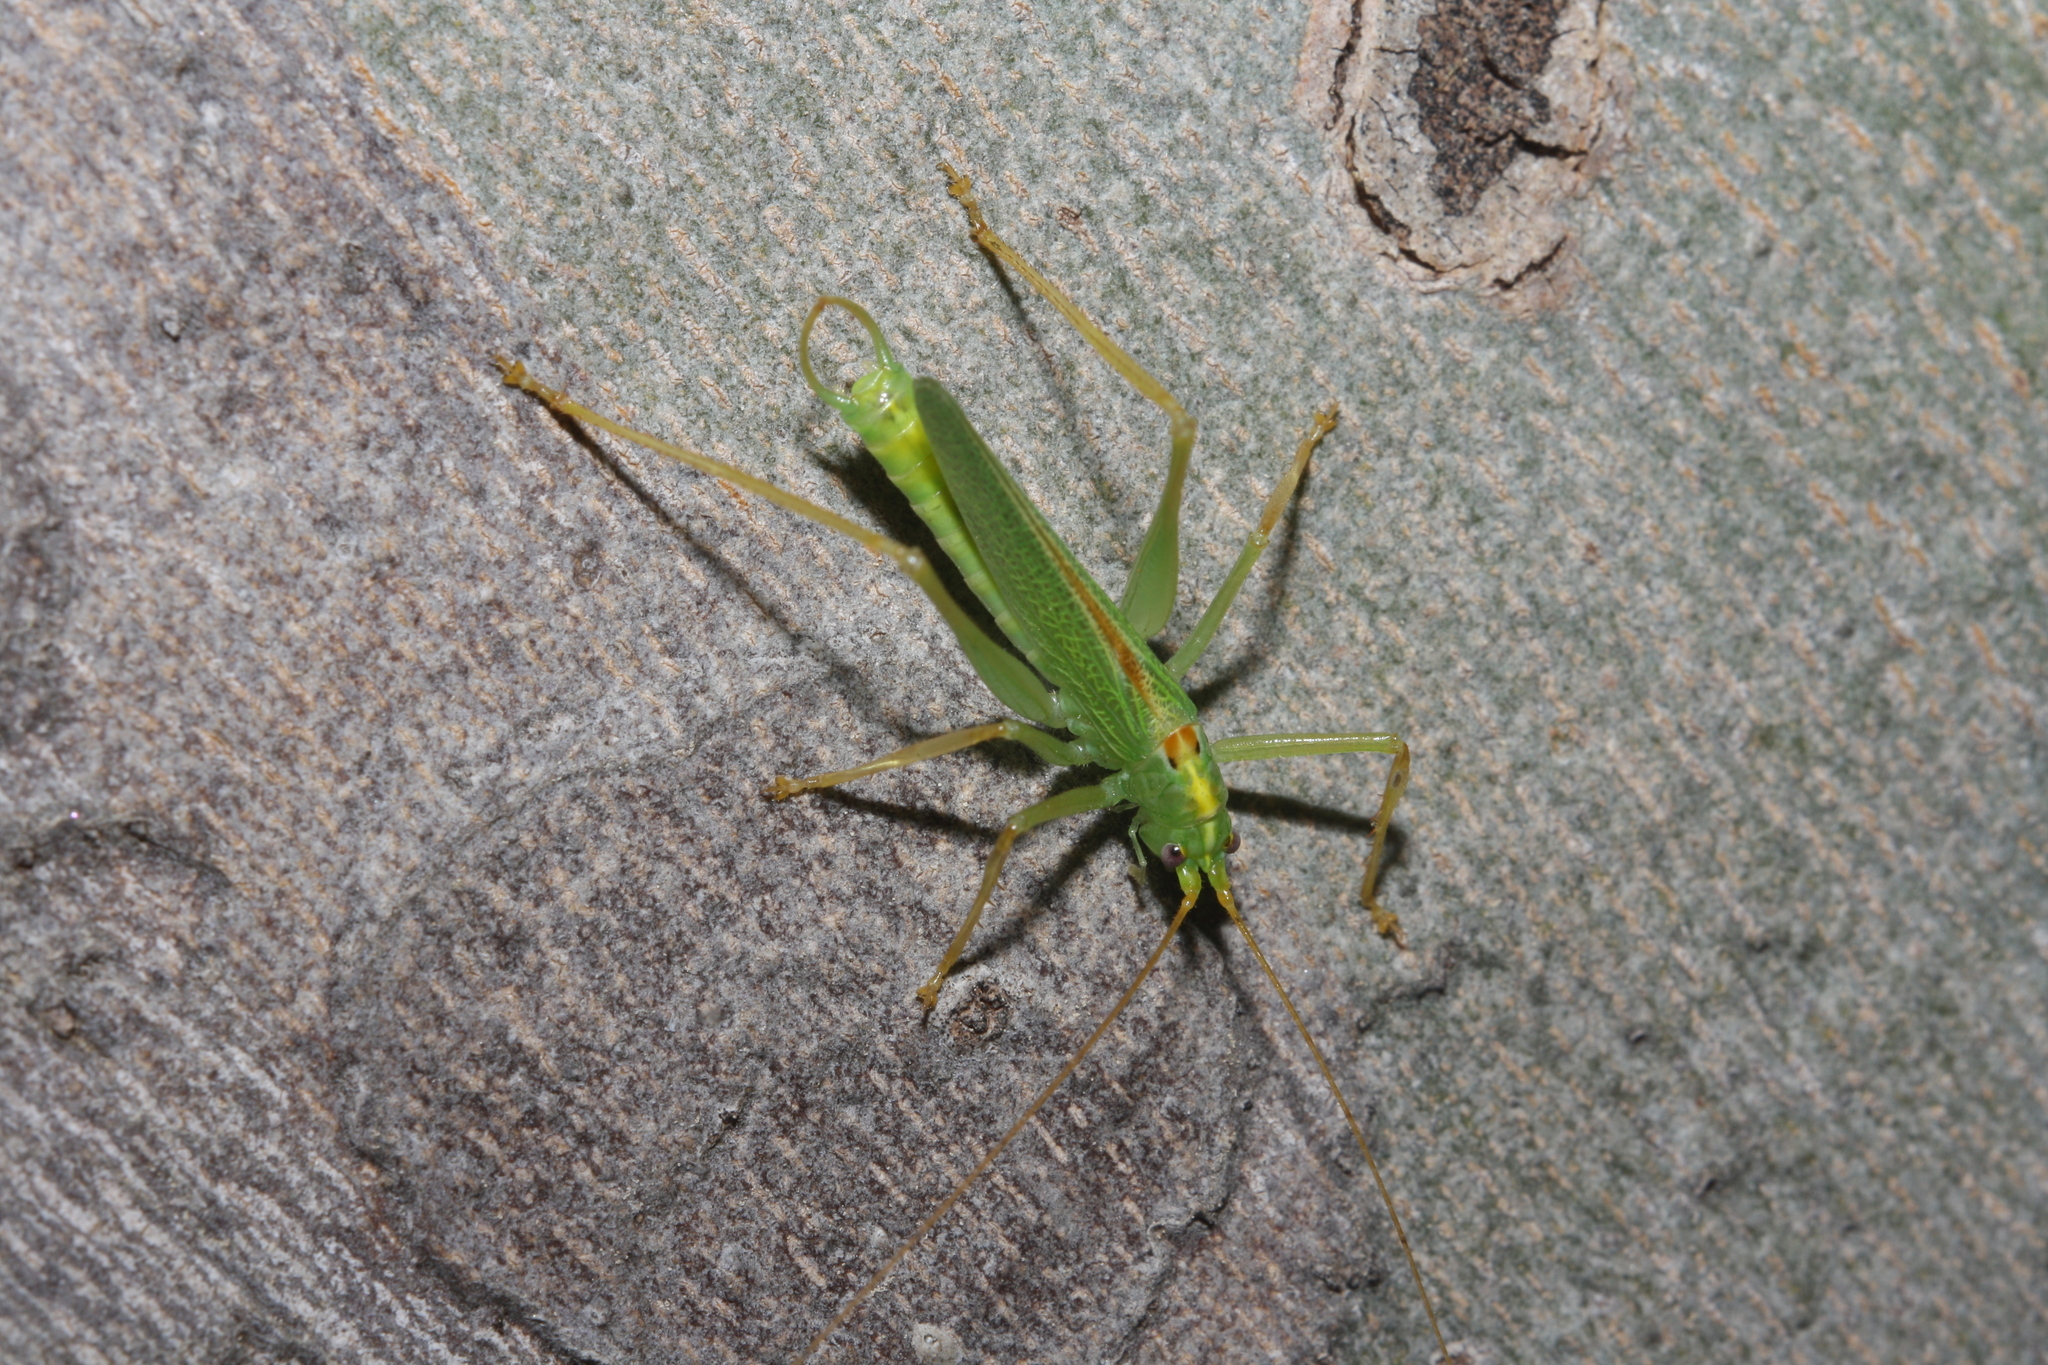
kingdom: Animalia
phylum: Arthropoda
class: Insecta
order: Orthoptera
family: Tettigoniidae
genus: Meconema
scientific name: Meconema thalassinum
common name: Oak bush-cricket
